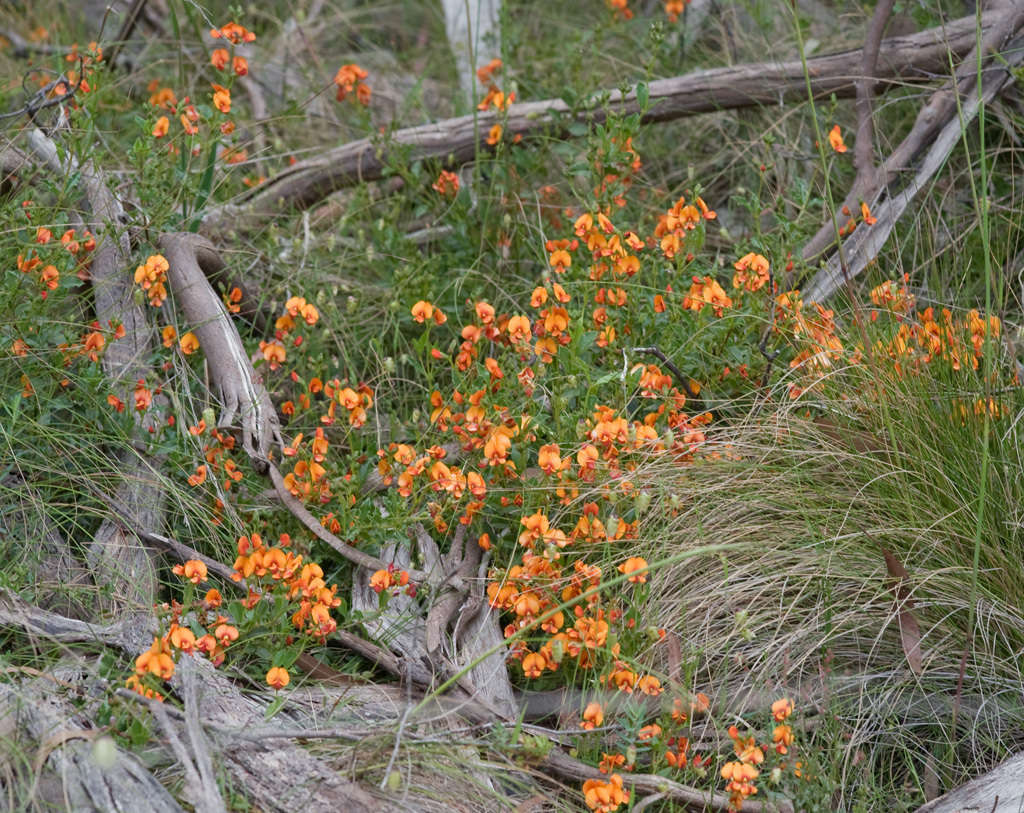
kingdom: Plantae
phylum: Tracheophyta
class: Magnoliopsida
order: Fabales
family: Fabaceae
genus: Podolobium
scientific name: Podolobium procumbens
